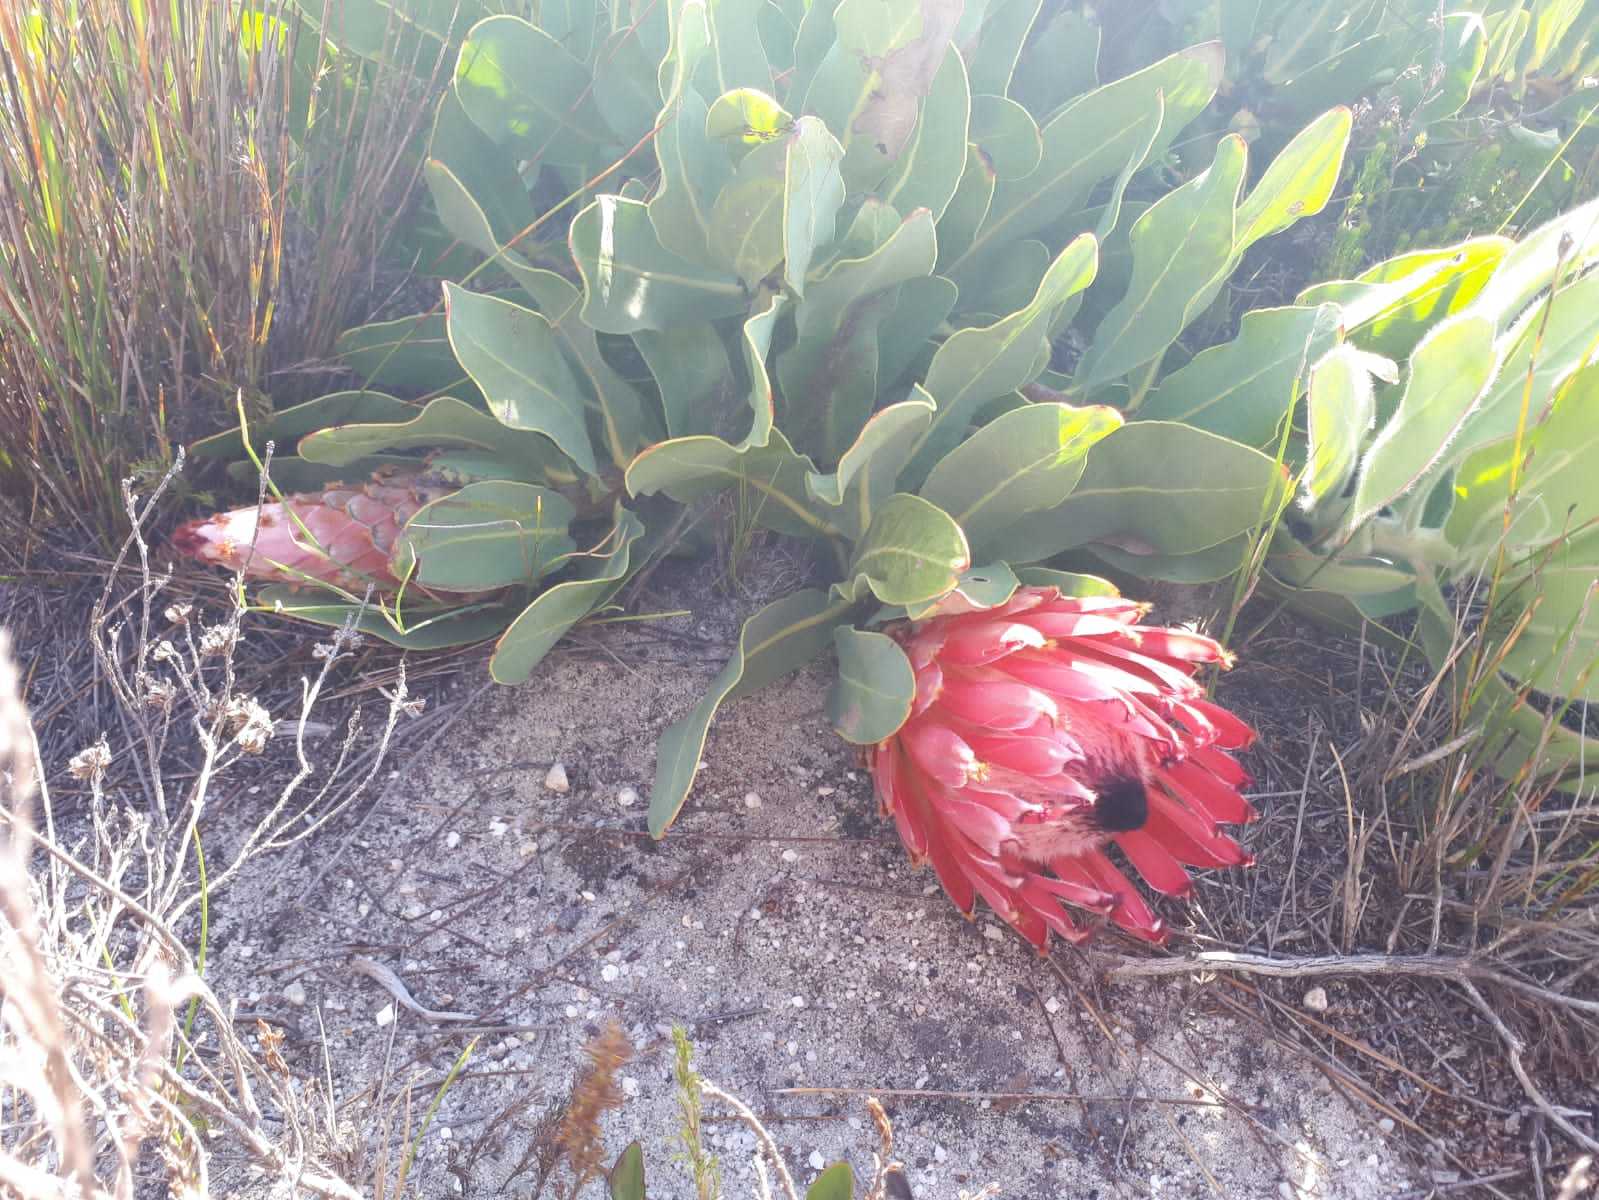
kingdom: Plantae
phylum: Tracheophyta
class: Magnoliopsida
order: Proteales
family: Proteaceae
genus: Protea
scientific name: Protea magnifica
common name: Bearded sugarbush
